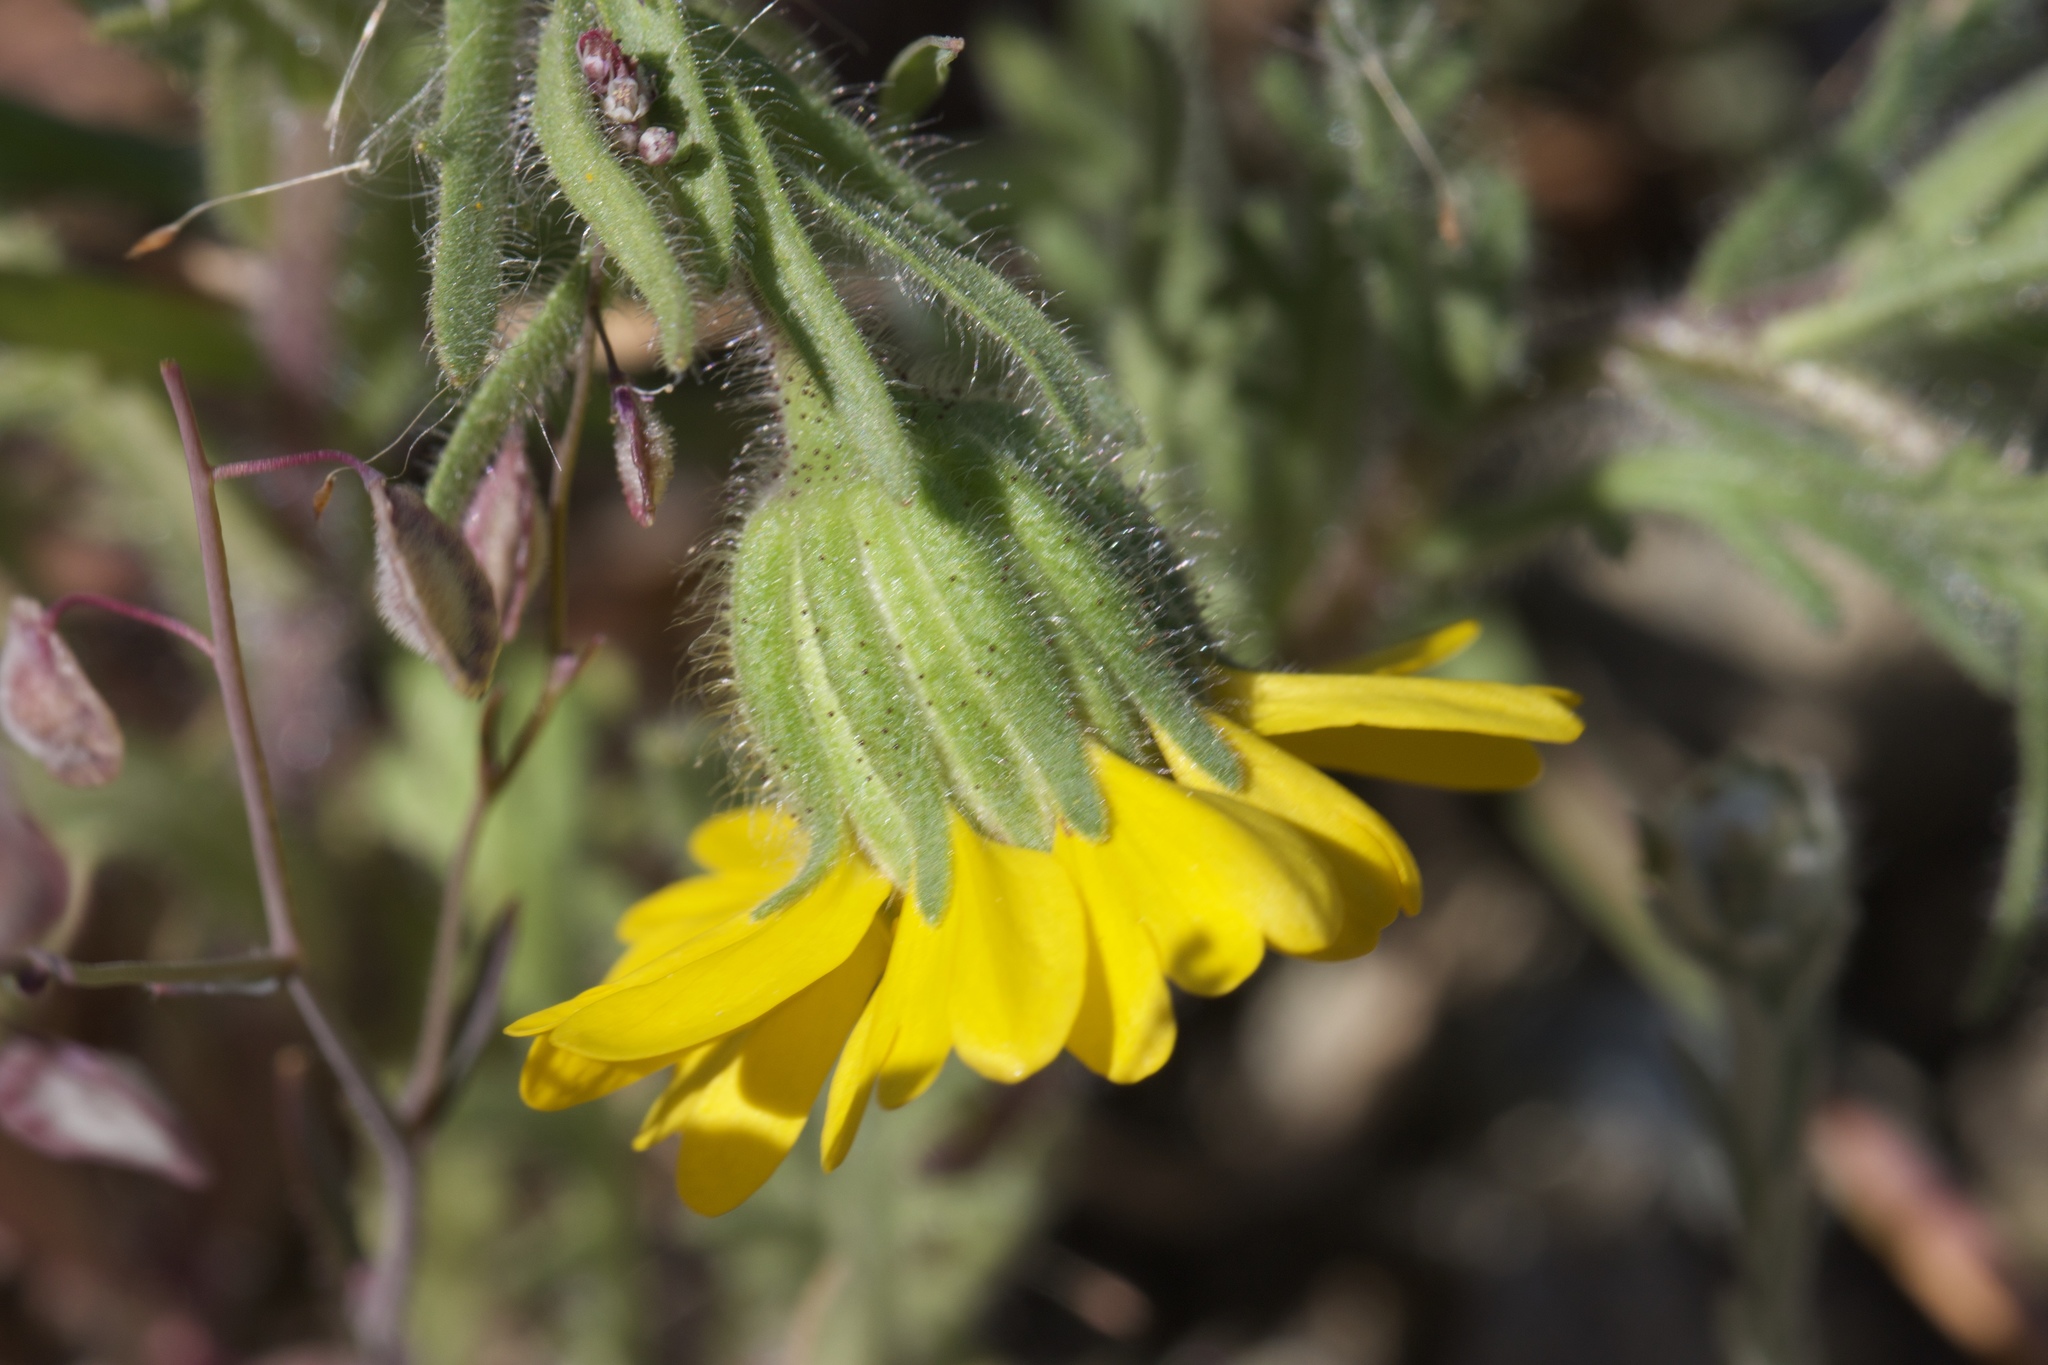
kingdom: Plantae
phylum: Tracheophyta
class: Magnoliopsida
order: Asterales
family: Asteraceae
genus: Layia
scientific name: Layia septentrionalis
